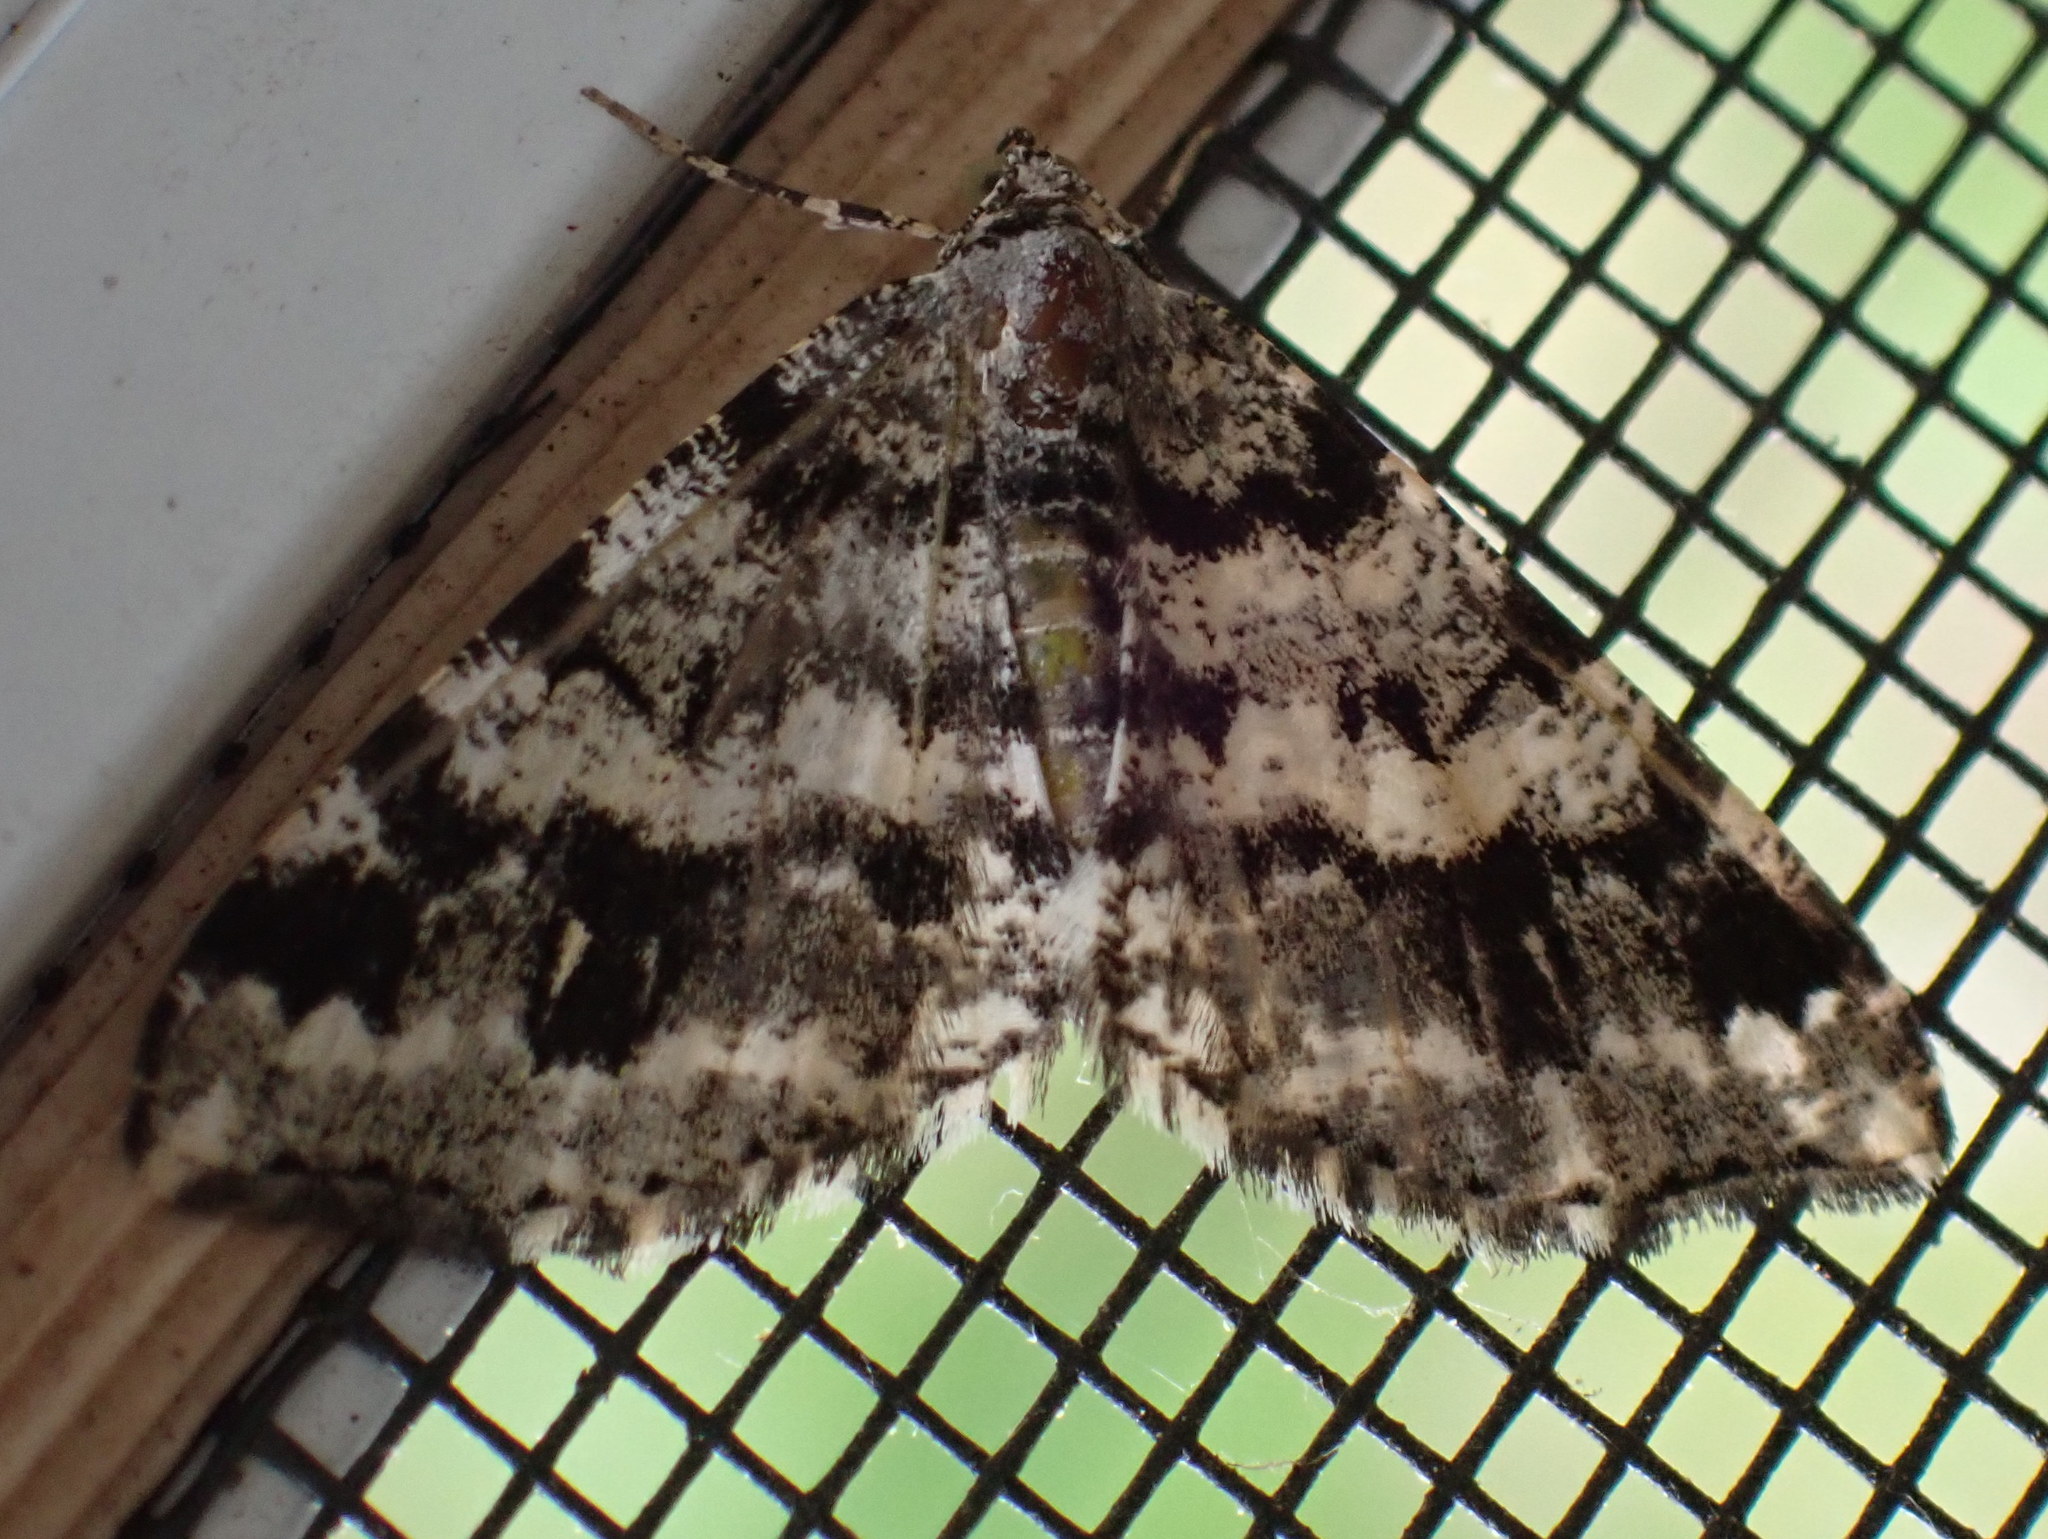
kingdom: Animalia
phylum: Arthropoda
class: Insecta
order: Lepidoptera
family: Geometridae
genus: Macaria
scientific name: Macaria oweni
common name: Owen's angle
